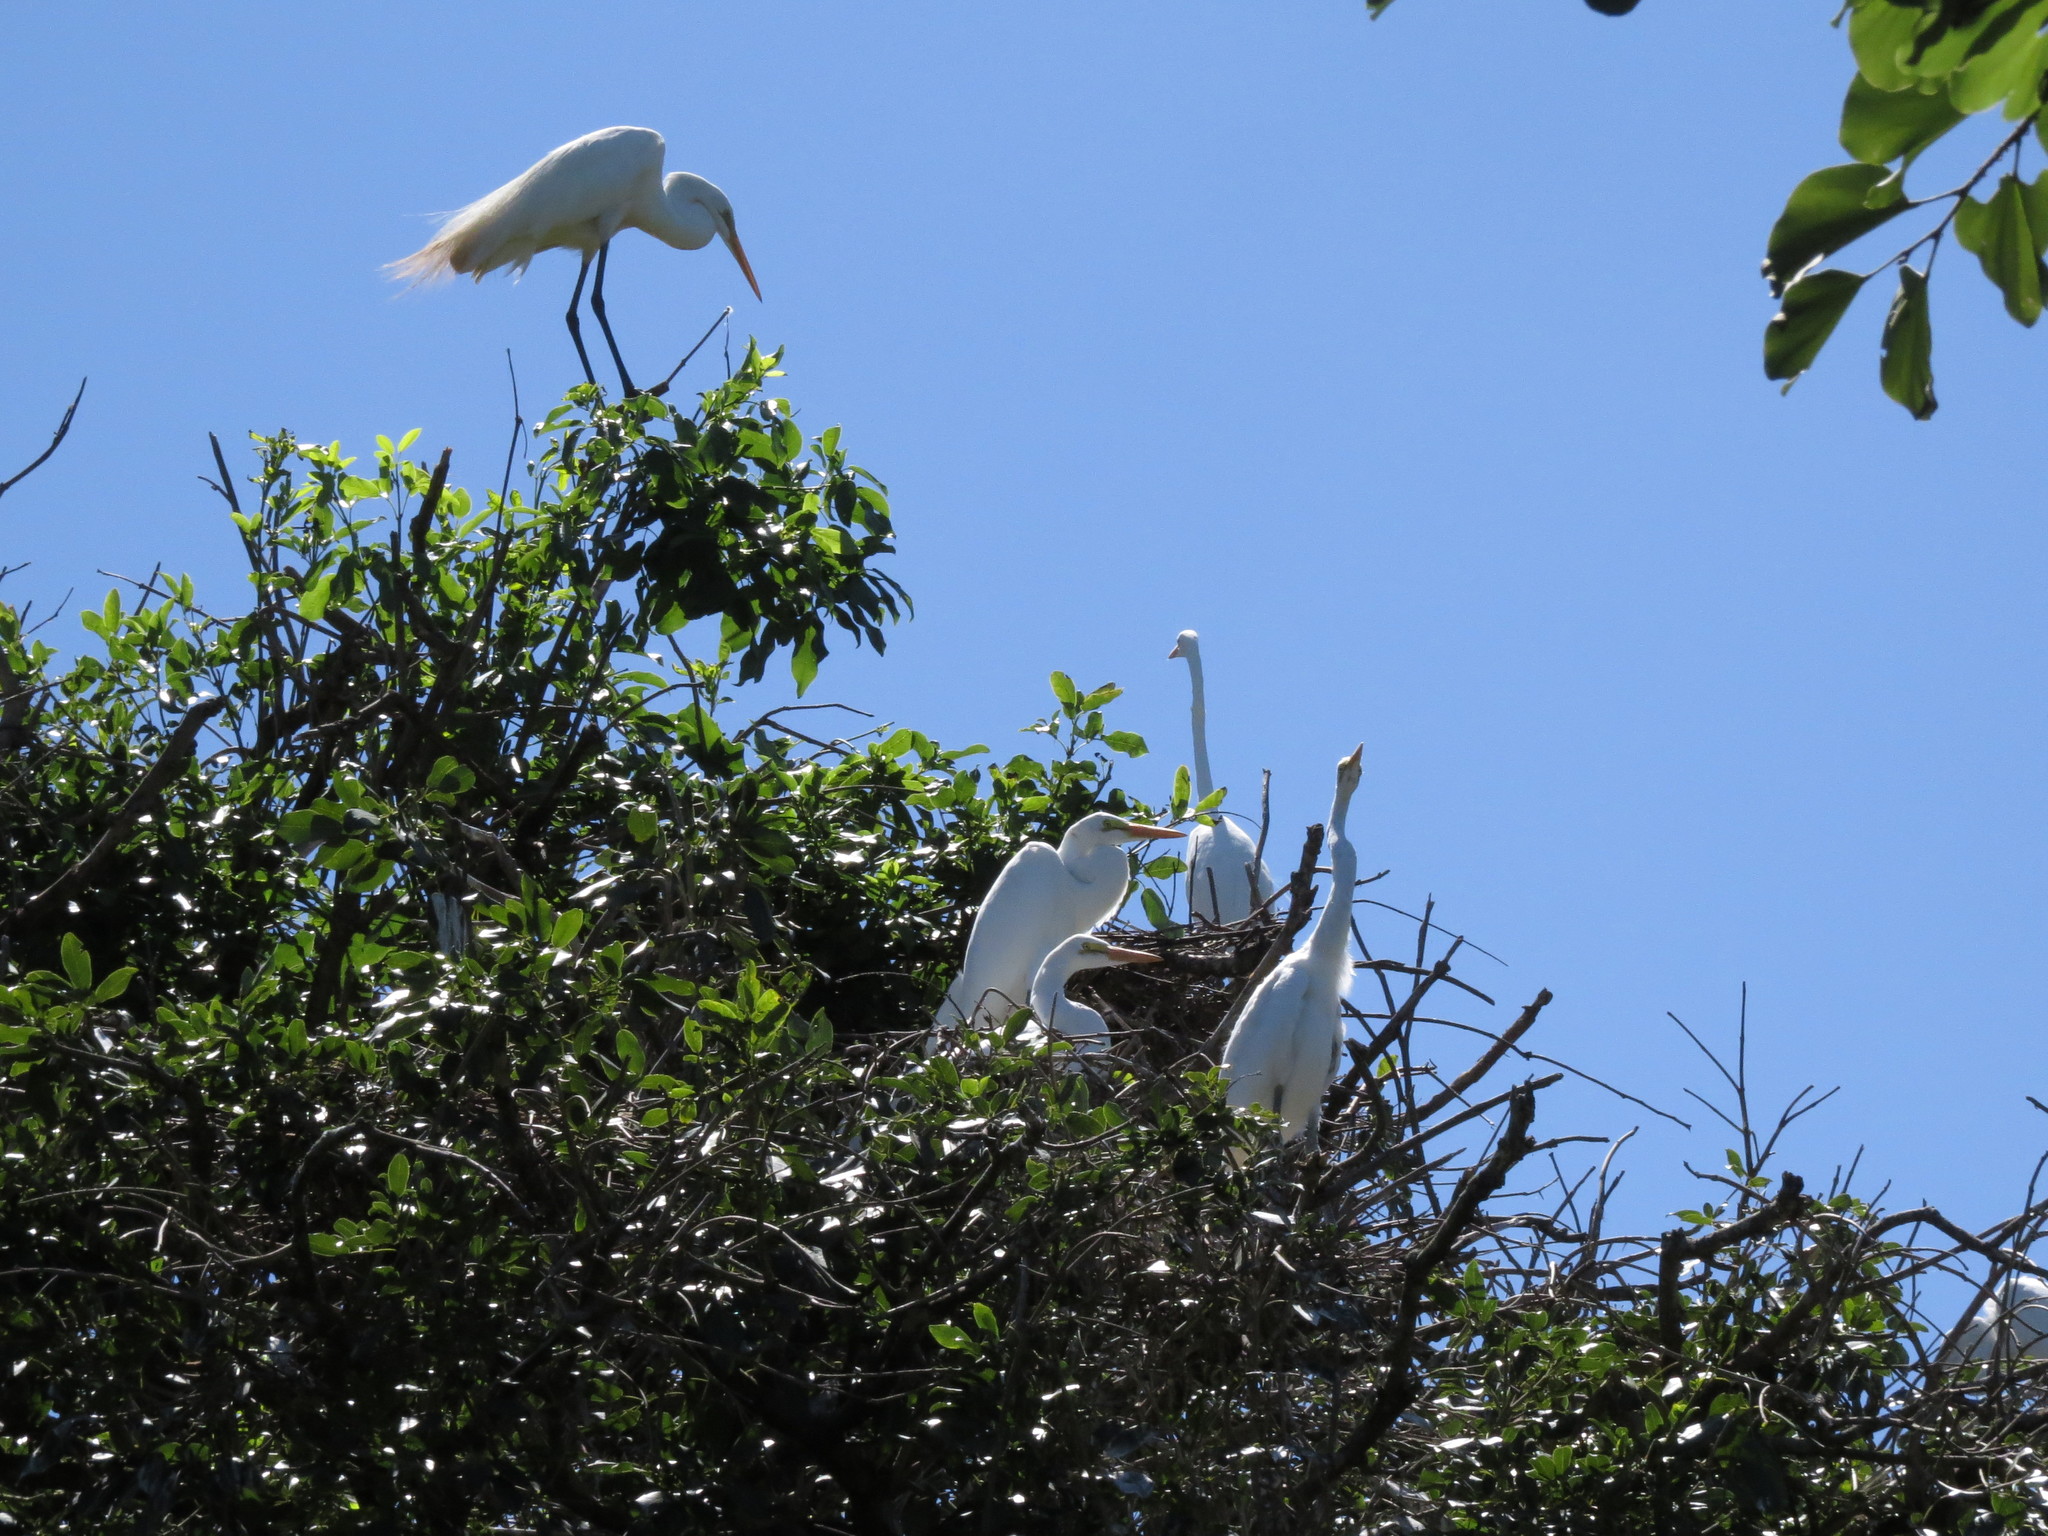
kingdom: Animalia
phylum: Chordata
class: Aves
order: Pelecaniformes
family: Ardeidae
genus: Ardea
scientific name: Ardea alba
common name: Great egret
